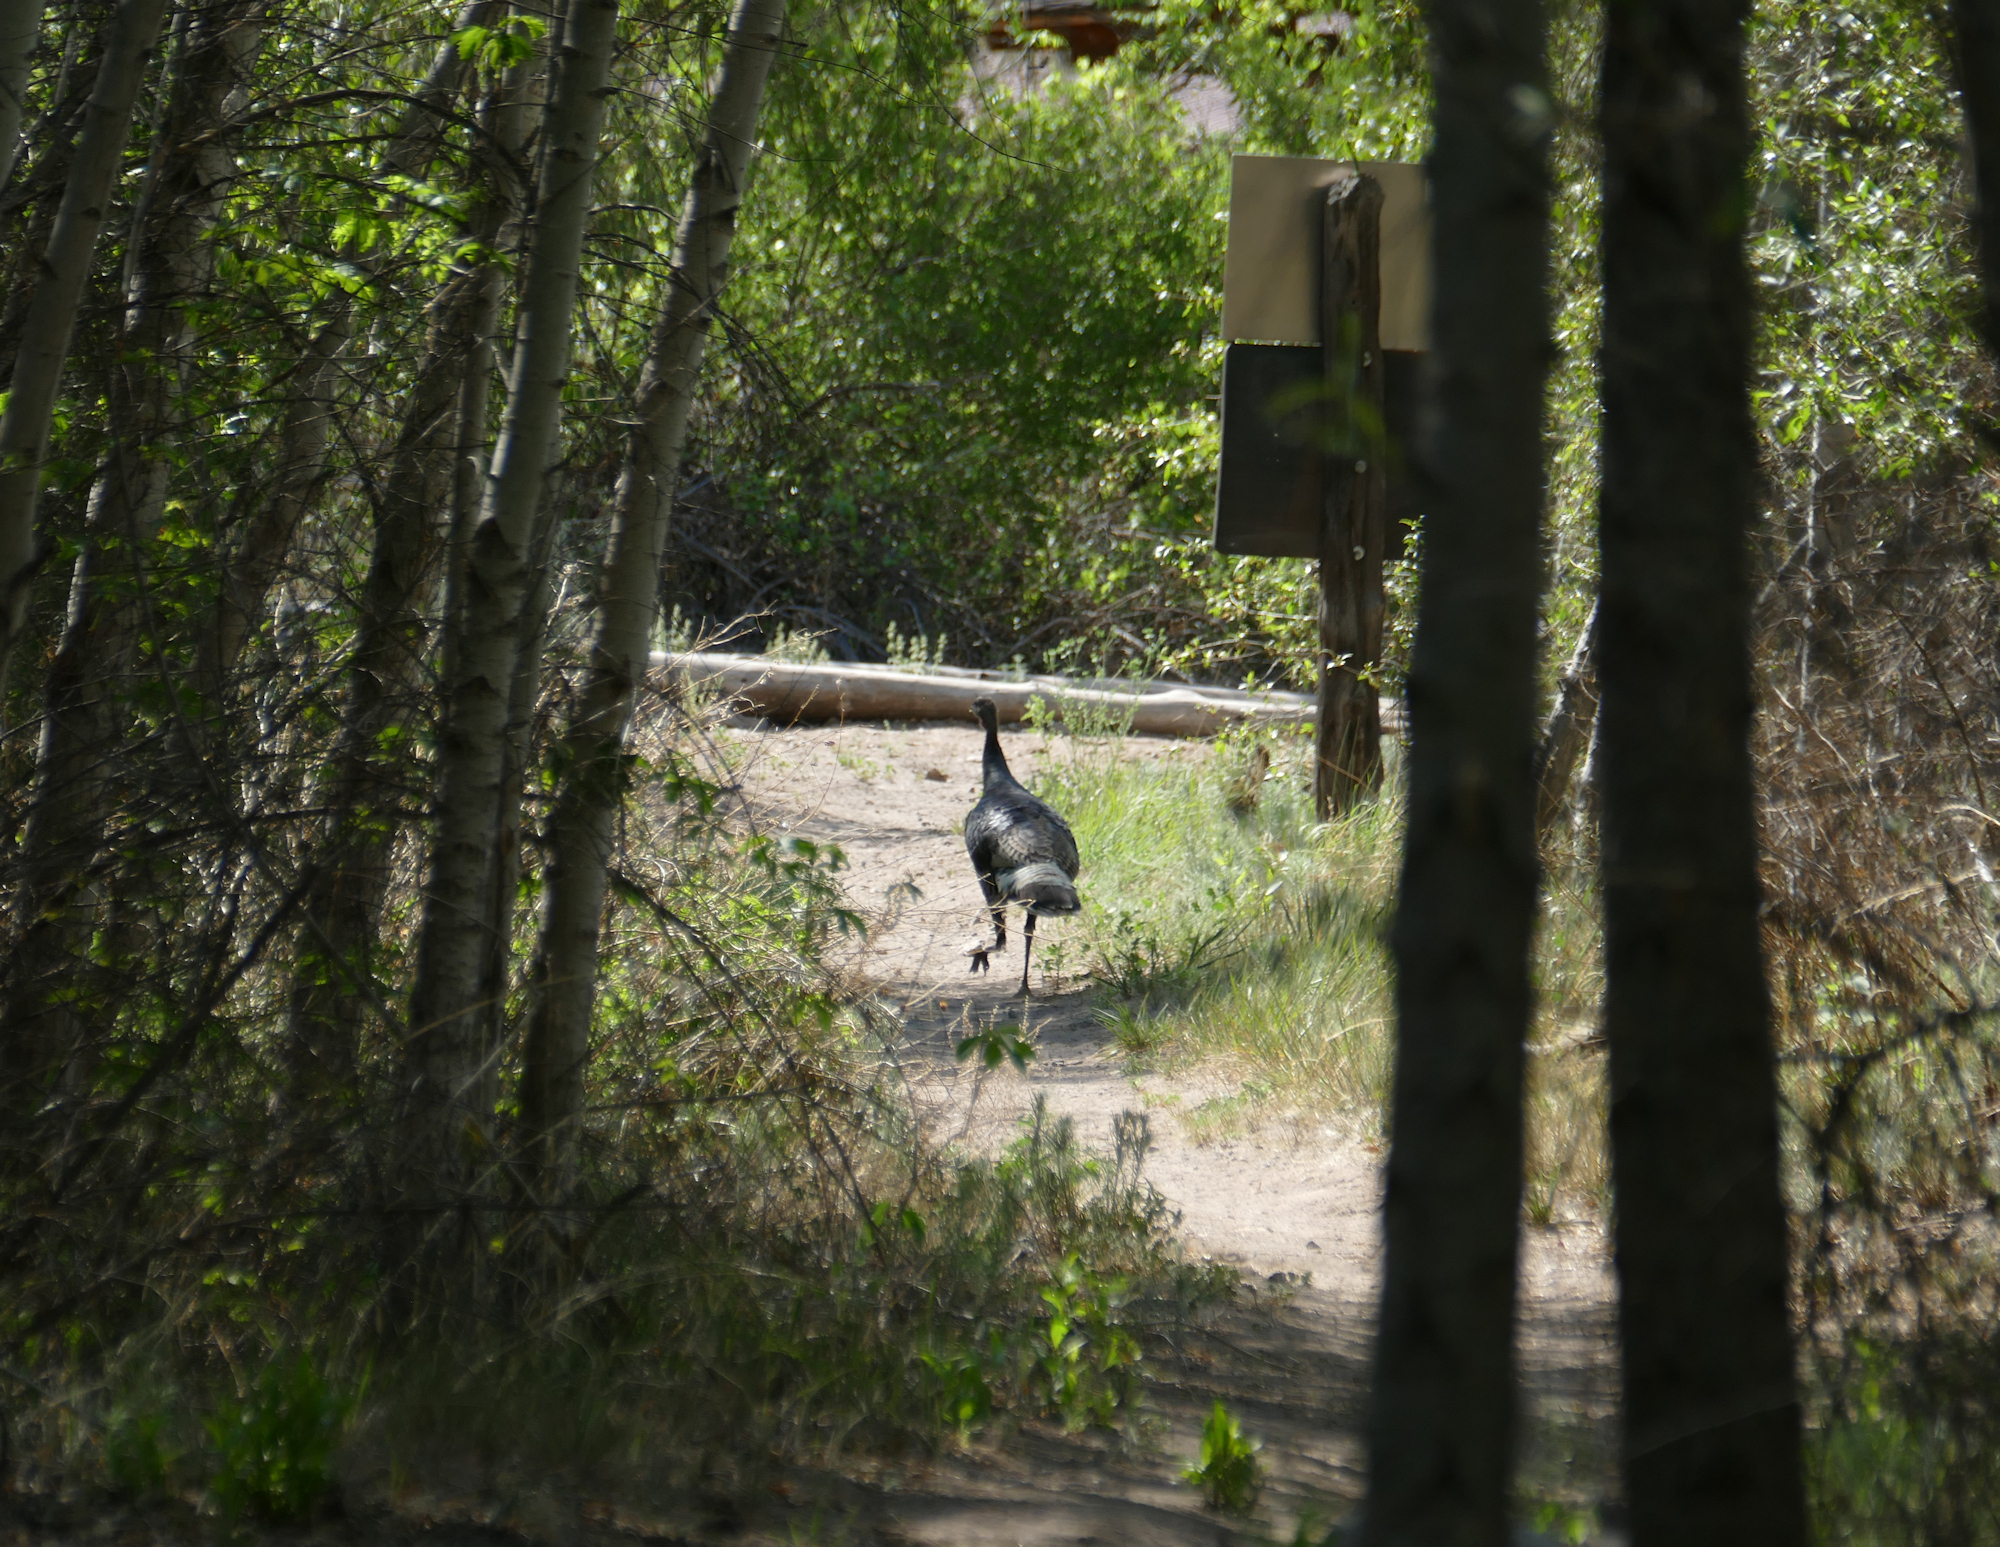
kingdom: Animalia
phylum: Chordata
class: Aves
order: Galliformes
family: Phasianidae
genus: Meleagris
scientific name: Meleagris gallopavo
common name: Wild turkey
